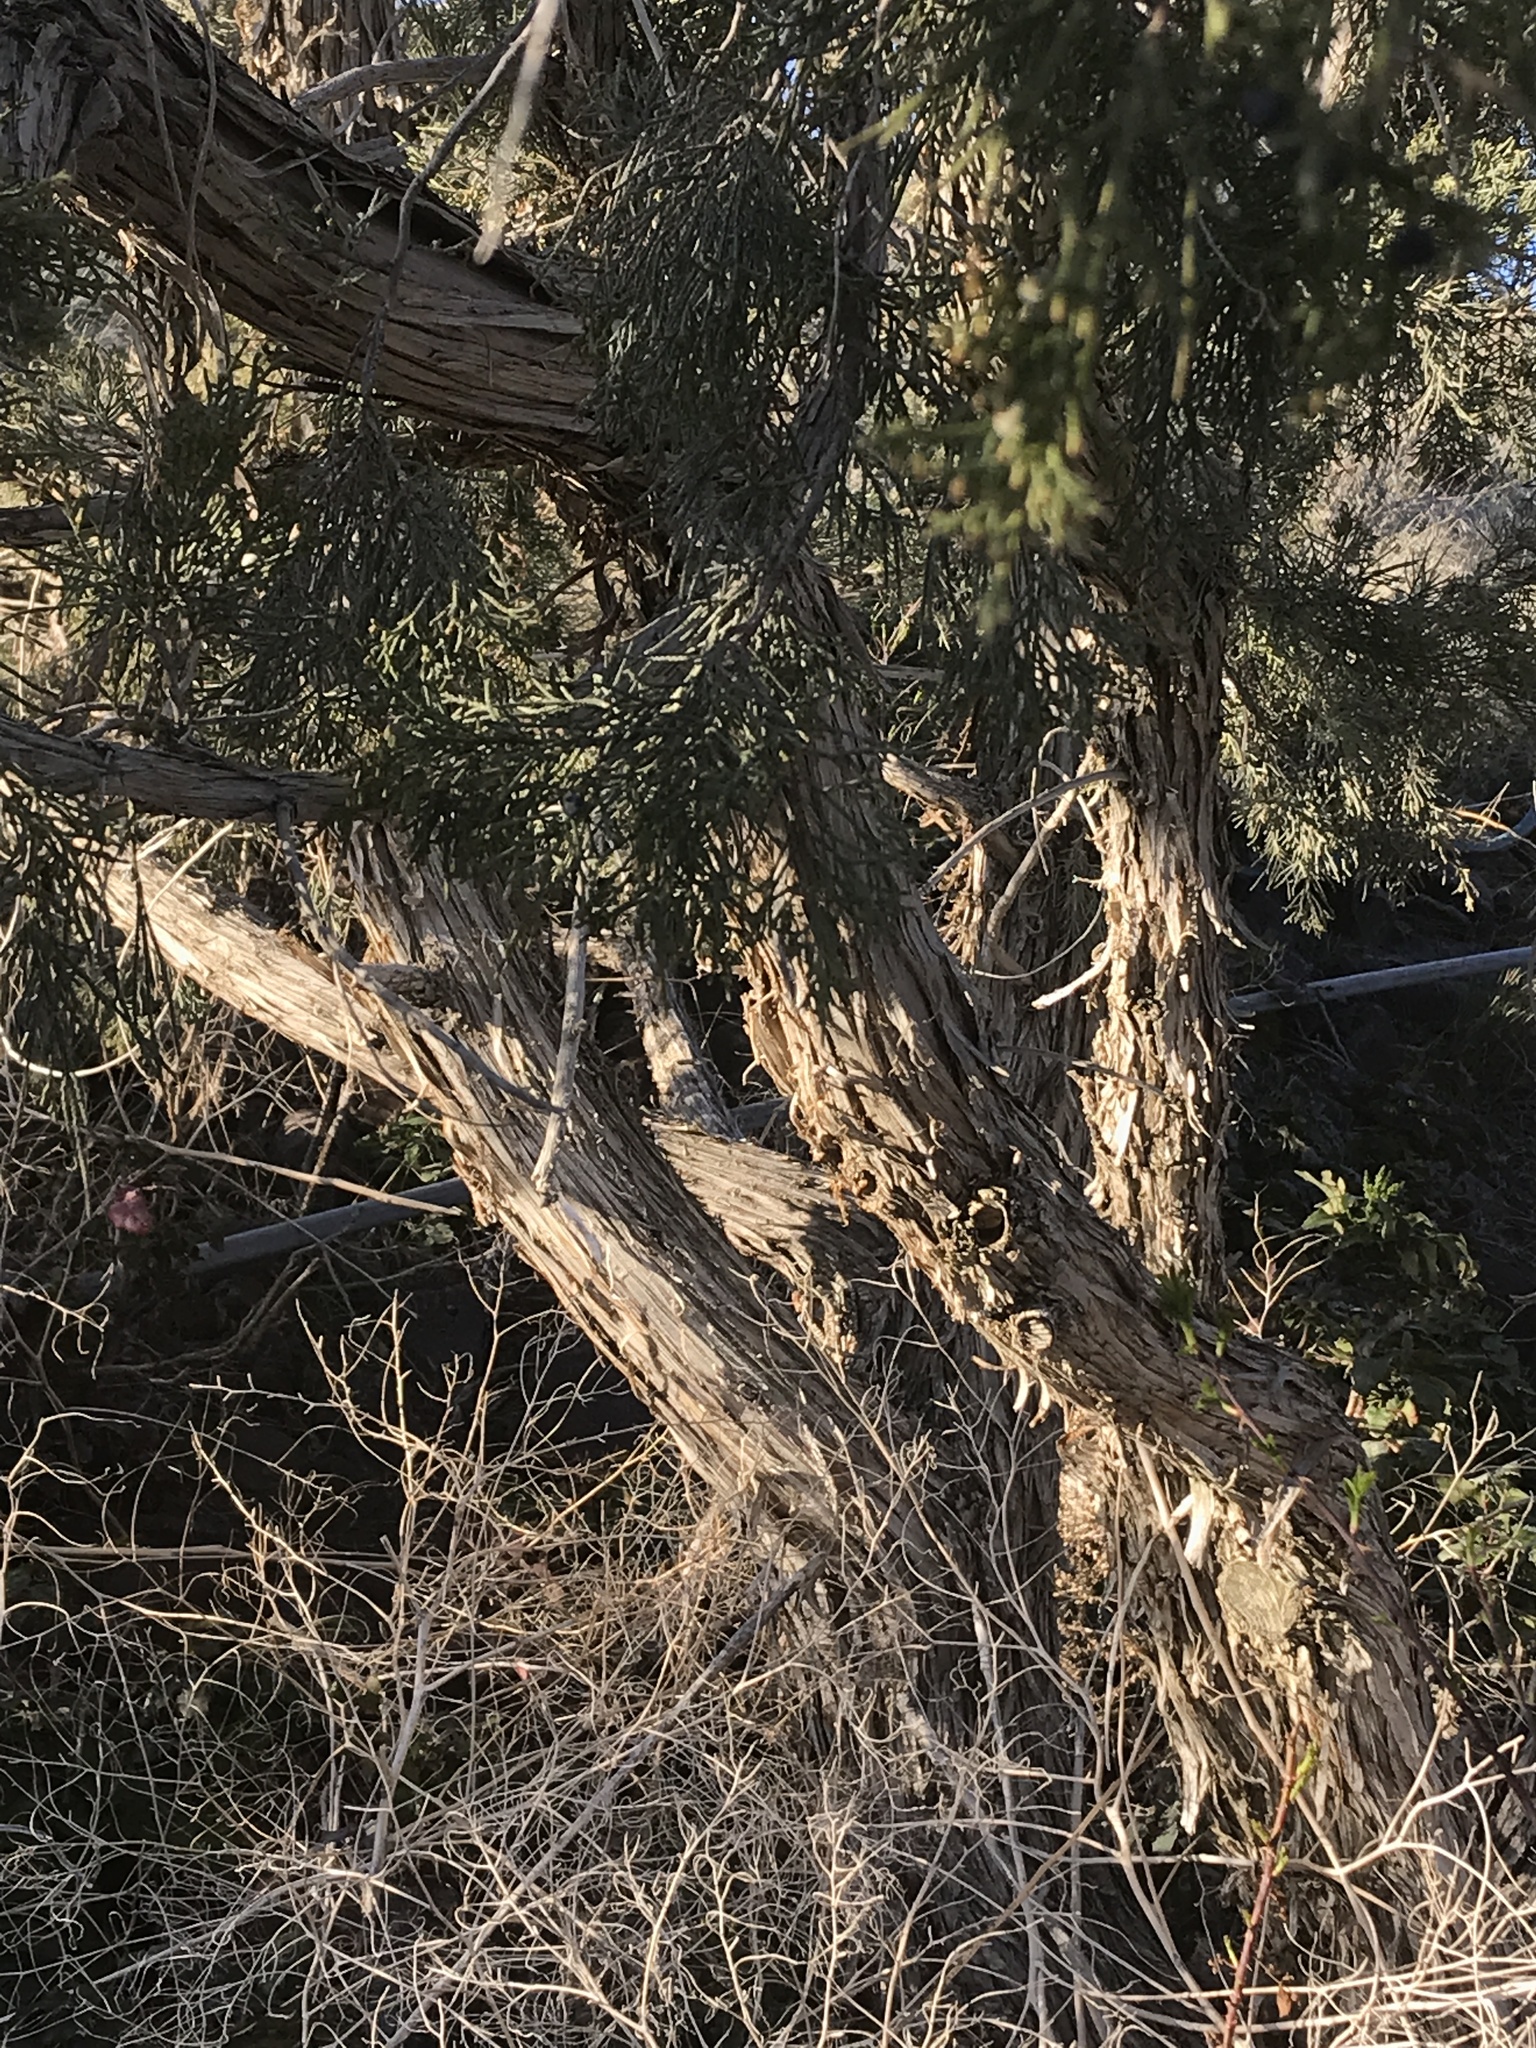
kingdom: Plantae
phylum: Tracheophyta
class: Pinopsida
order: Pinales
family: Cupressaceae
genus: Juniperus
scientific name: Juniperus scopulorum
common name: Rocky mountain juniper
